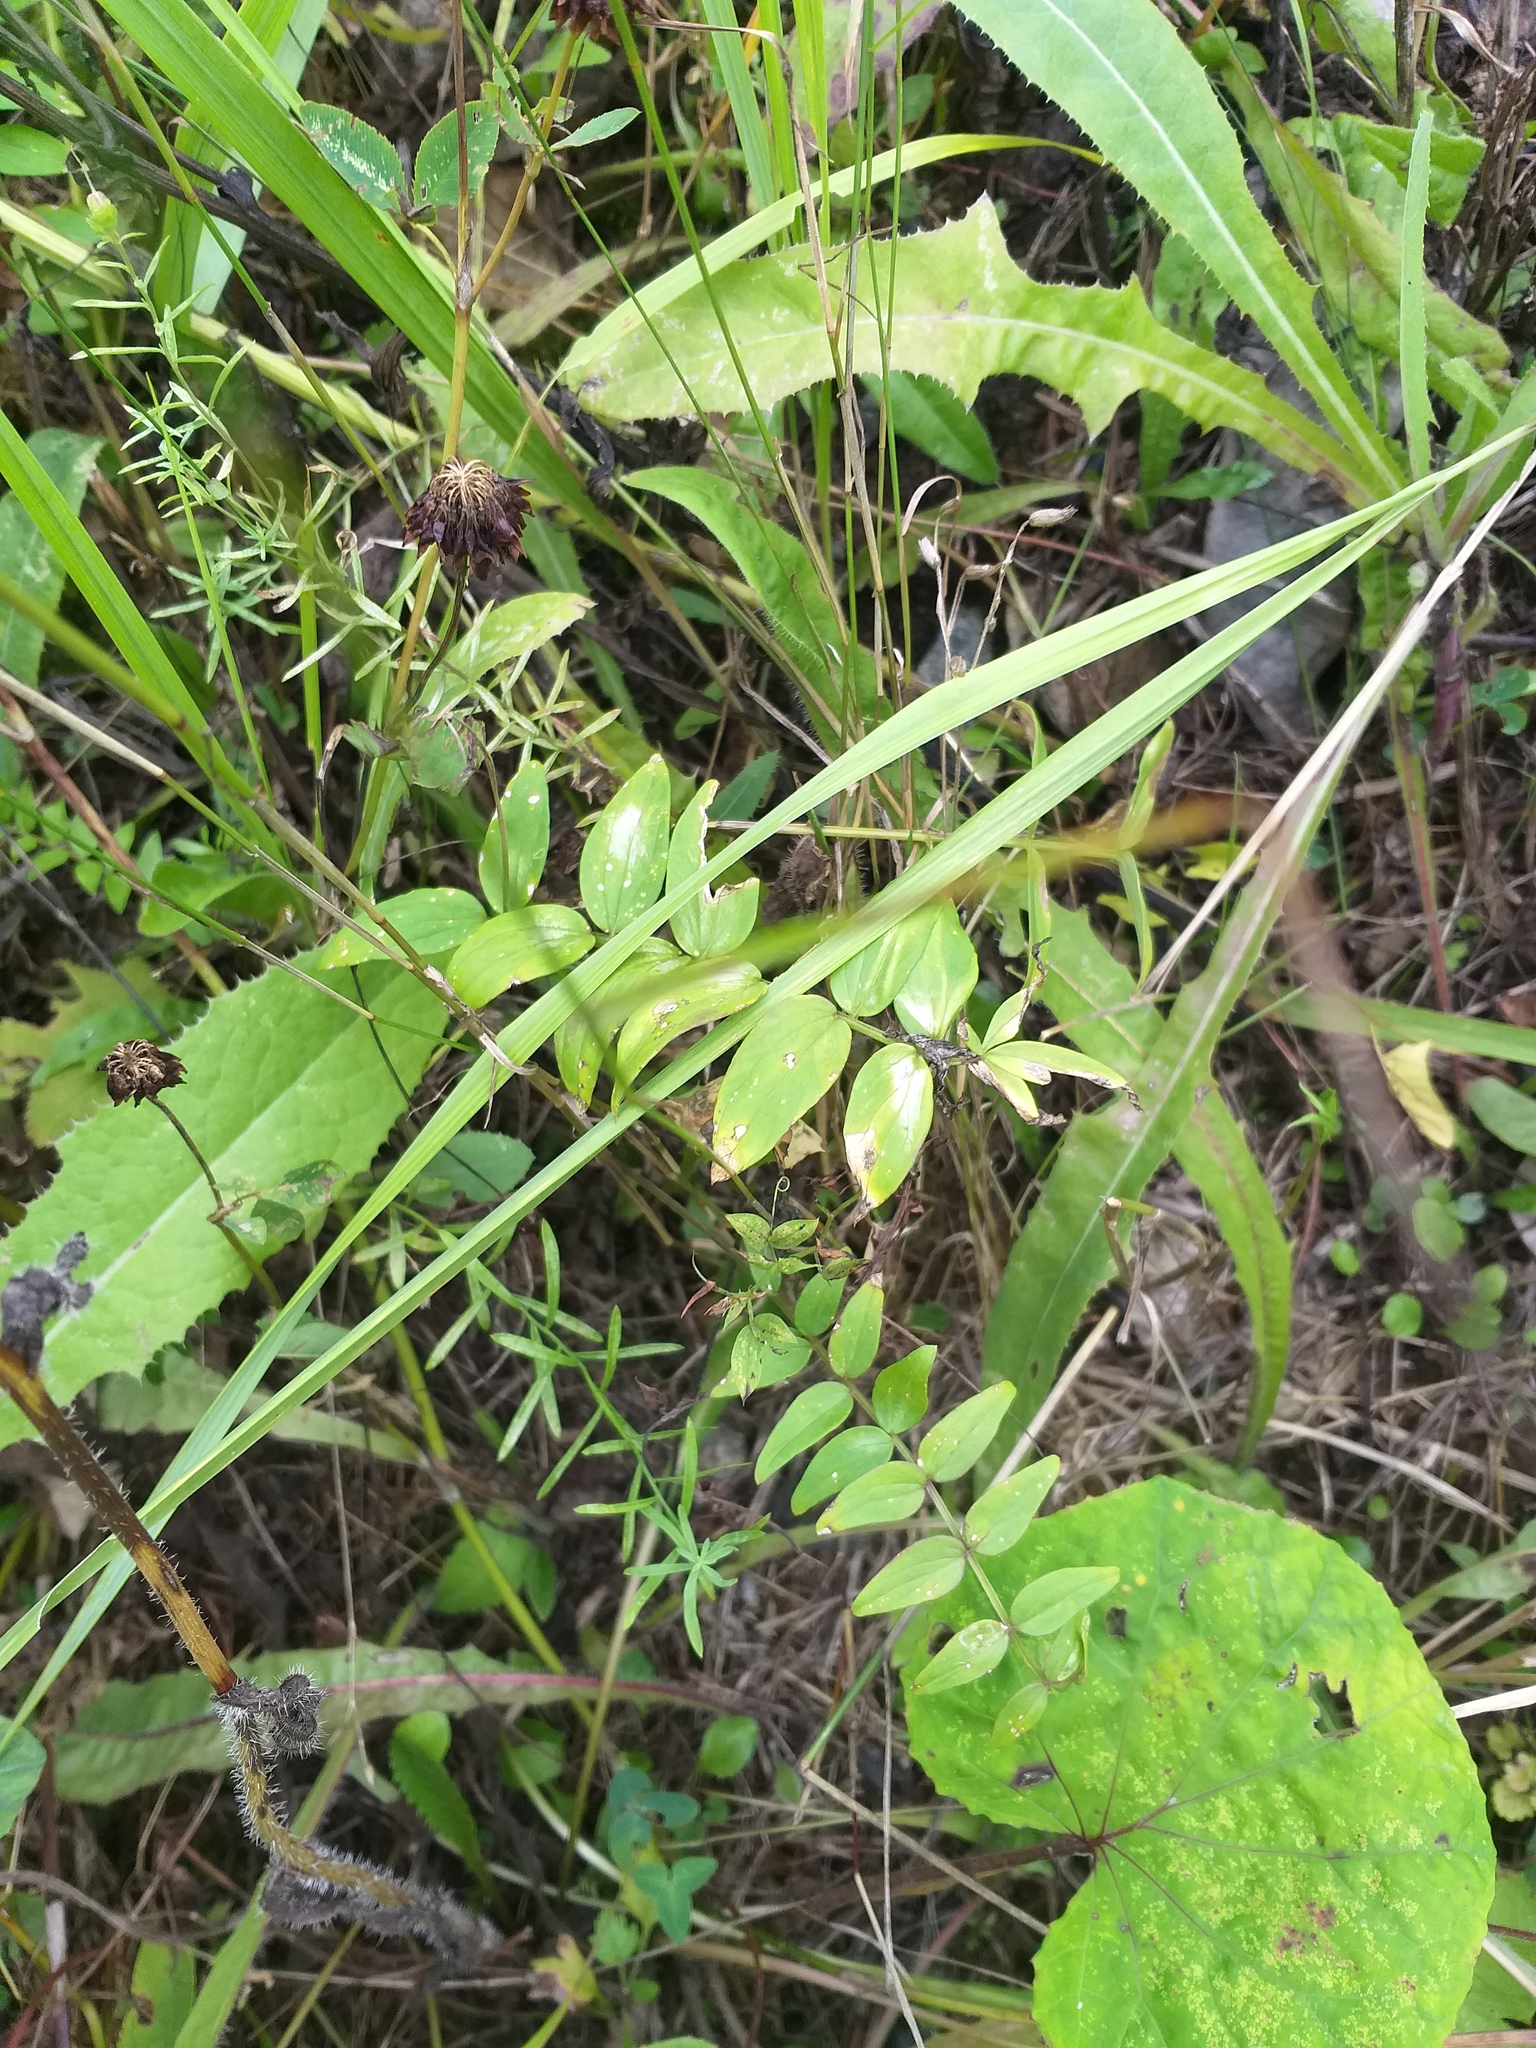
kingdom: Plantae
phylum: Tracheophyta
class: Magnoliopsida
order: Ericales
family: Polemoniaceae
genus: Polemonium
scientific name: Polemonium caeruleum
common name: Jacob's-ladder
